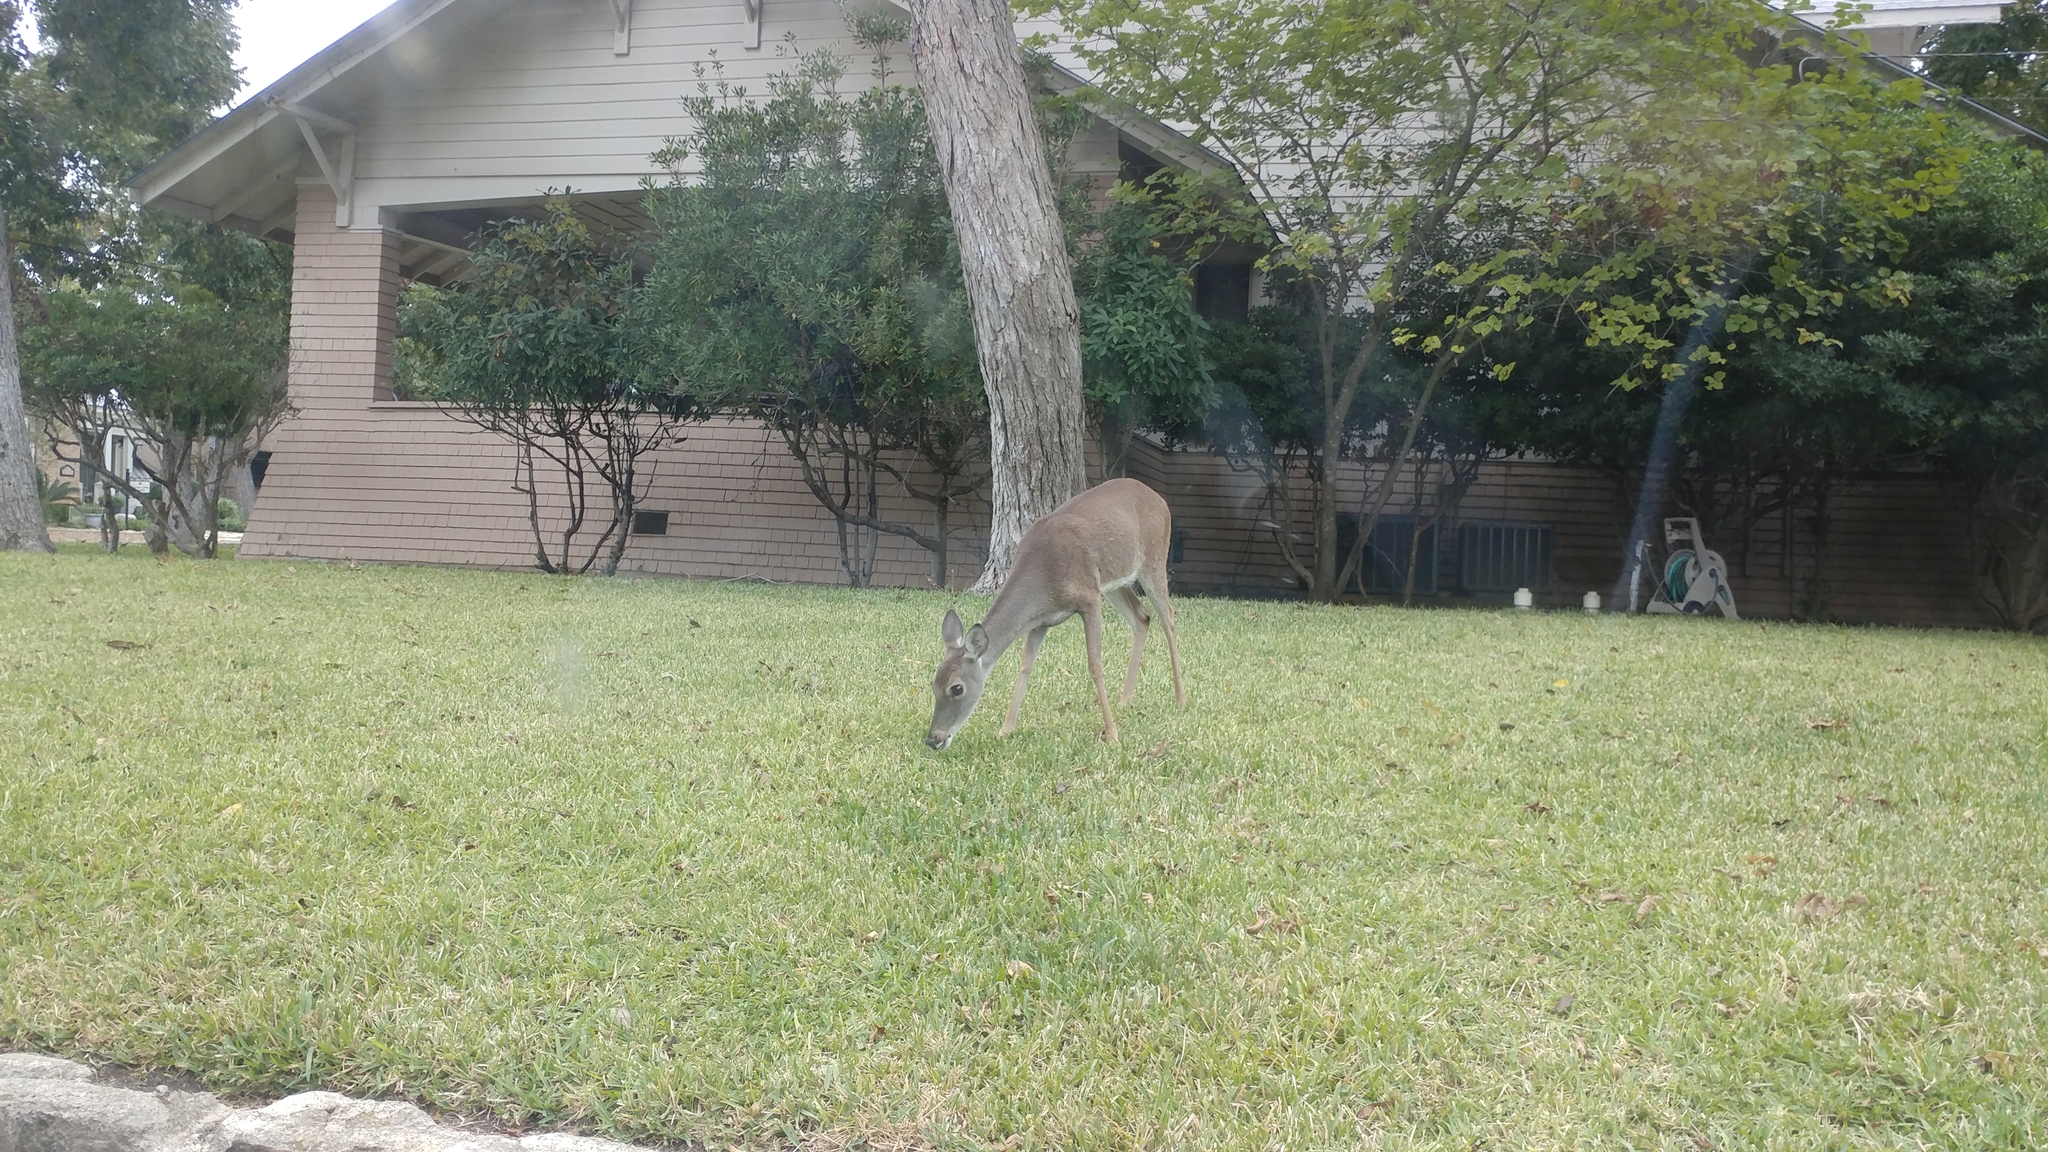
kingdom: Animalia
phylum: Chordata
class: Mammalia
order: Artiodactyla
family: Cervidae
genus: Odocoileus
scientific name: Odocoileus virginianus
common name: White-tailed deer
